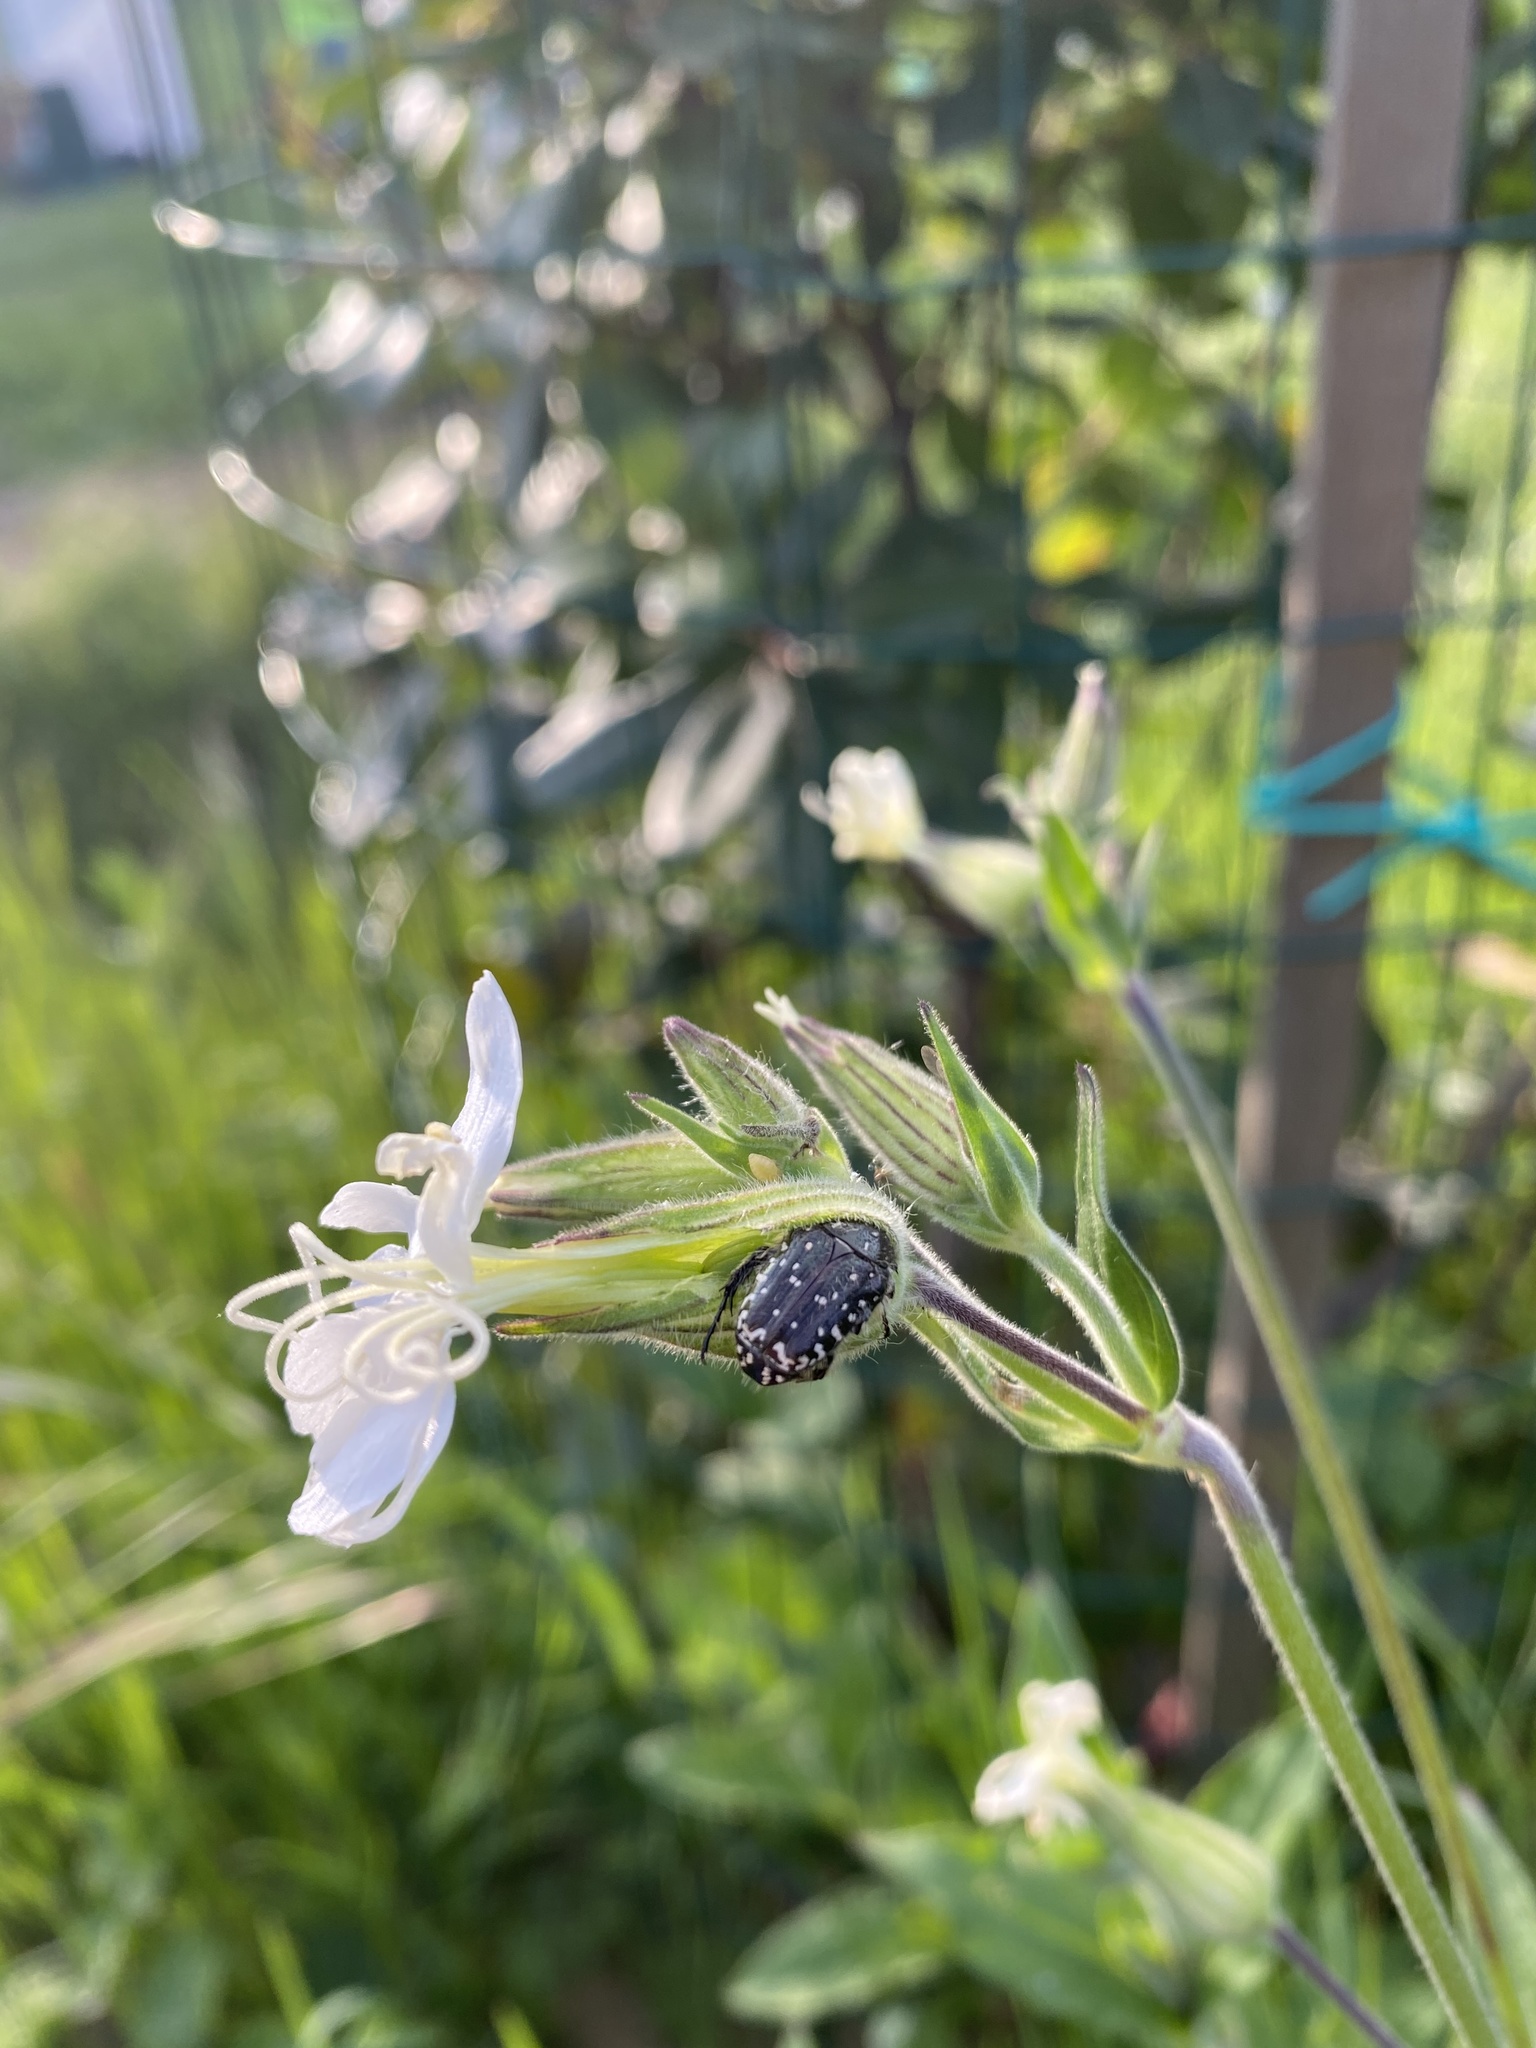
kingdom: Animalia
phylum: Arthropoda
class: Insecta
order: Coleoptera
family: Scarabaeidae
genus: Oxythyrea
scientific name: Oxythyrea funesta
